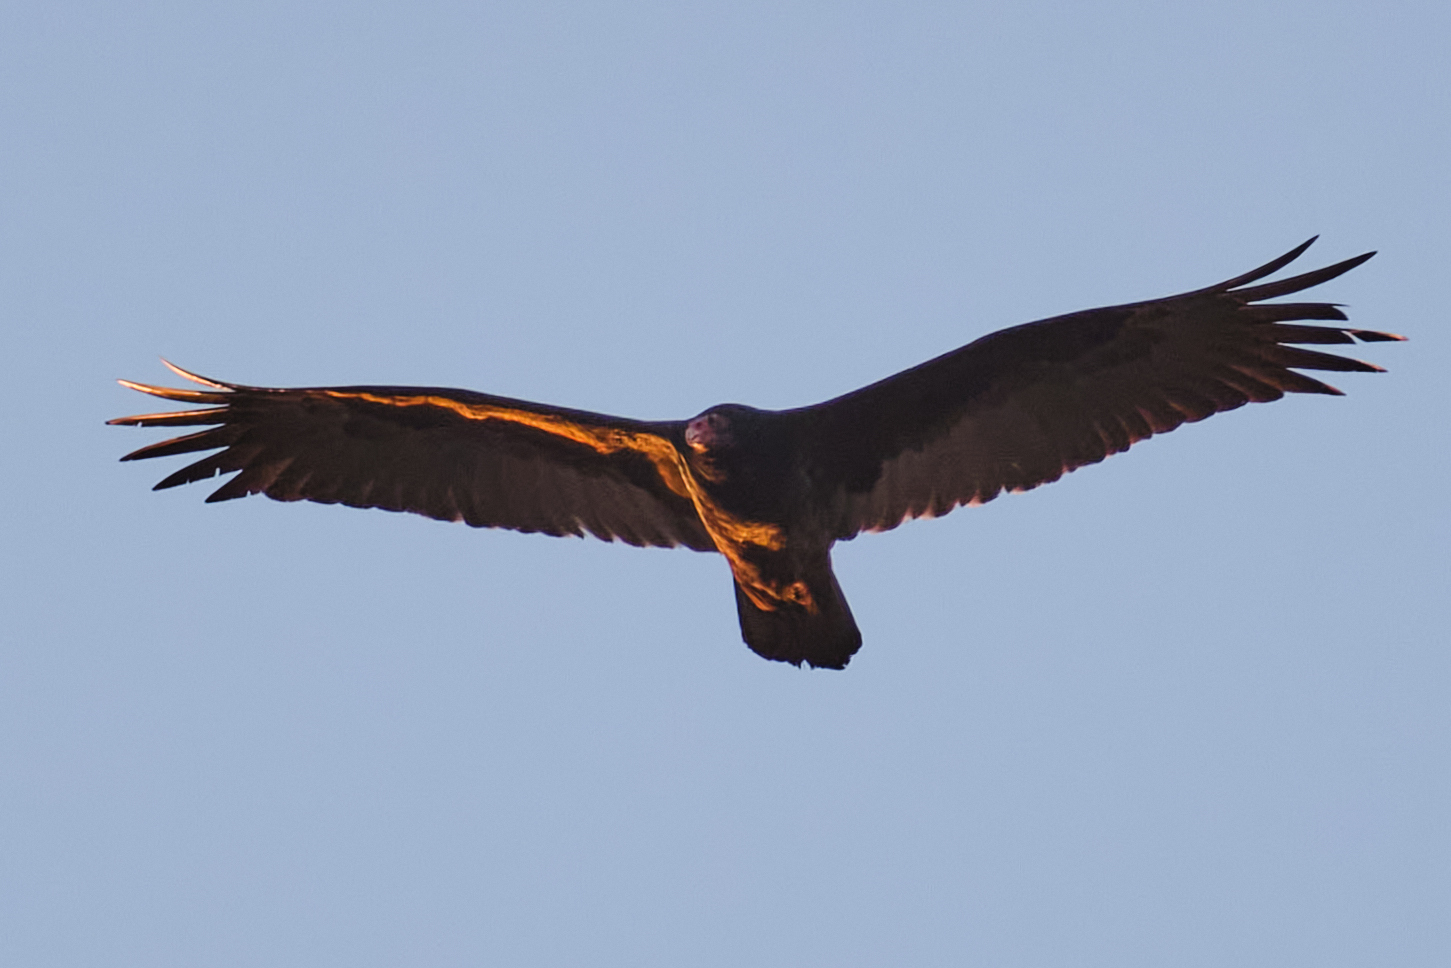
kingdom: Animalia
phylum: Chordata
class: Aves
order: Accipitriformes
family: Cathartidae
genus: Cathartes
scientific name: Cathartes aura
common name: Turkey vulture
